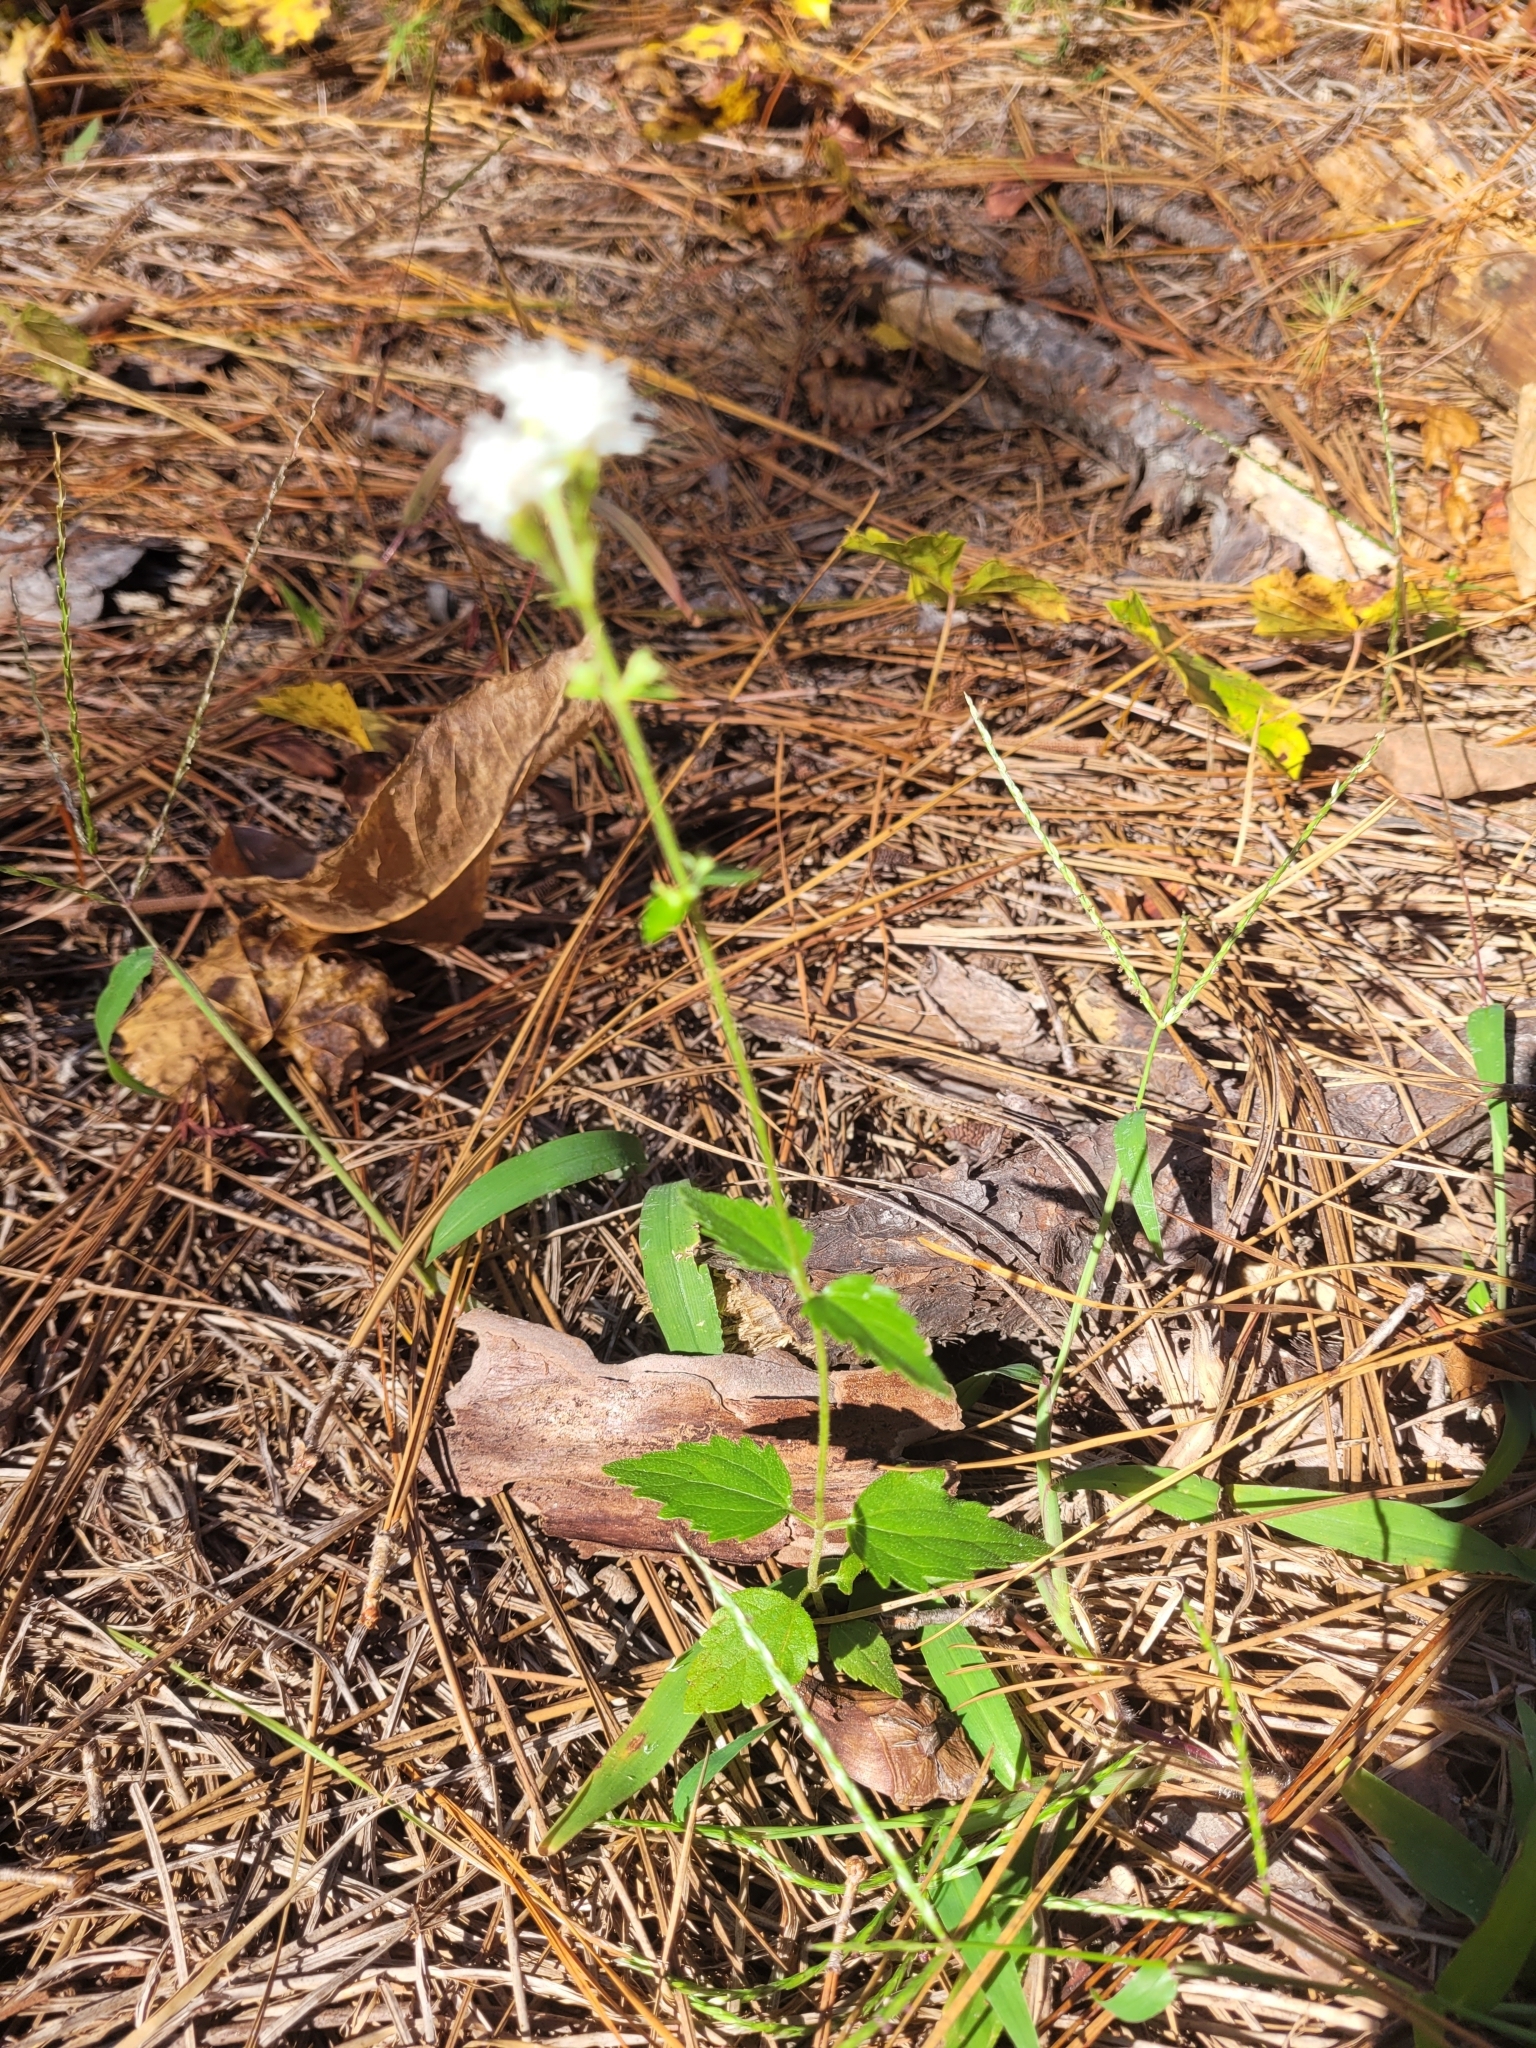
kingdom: Plantae
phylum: Tracheophyta
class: Magnoliopsida
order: Asterales
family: Asteraceae
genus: Ageratina
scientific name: Ageratina aromatica
